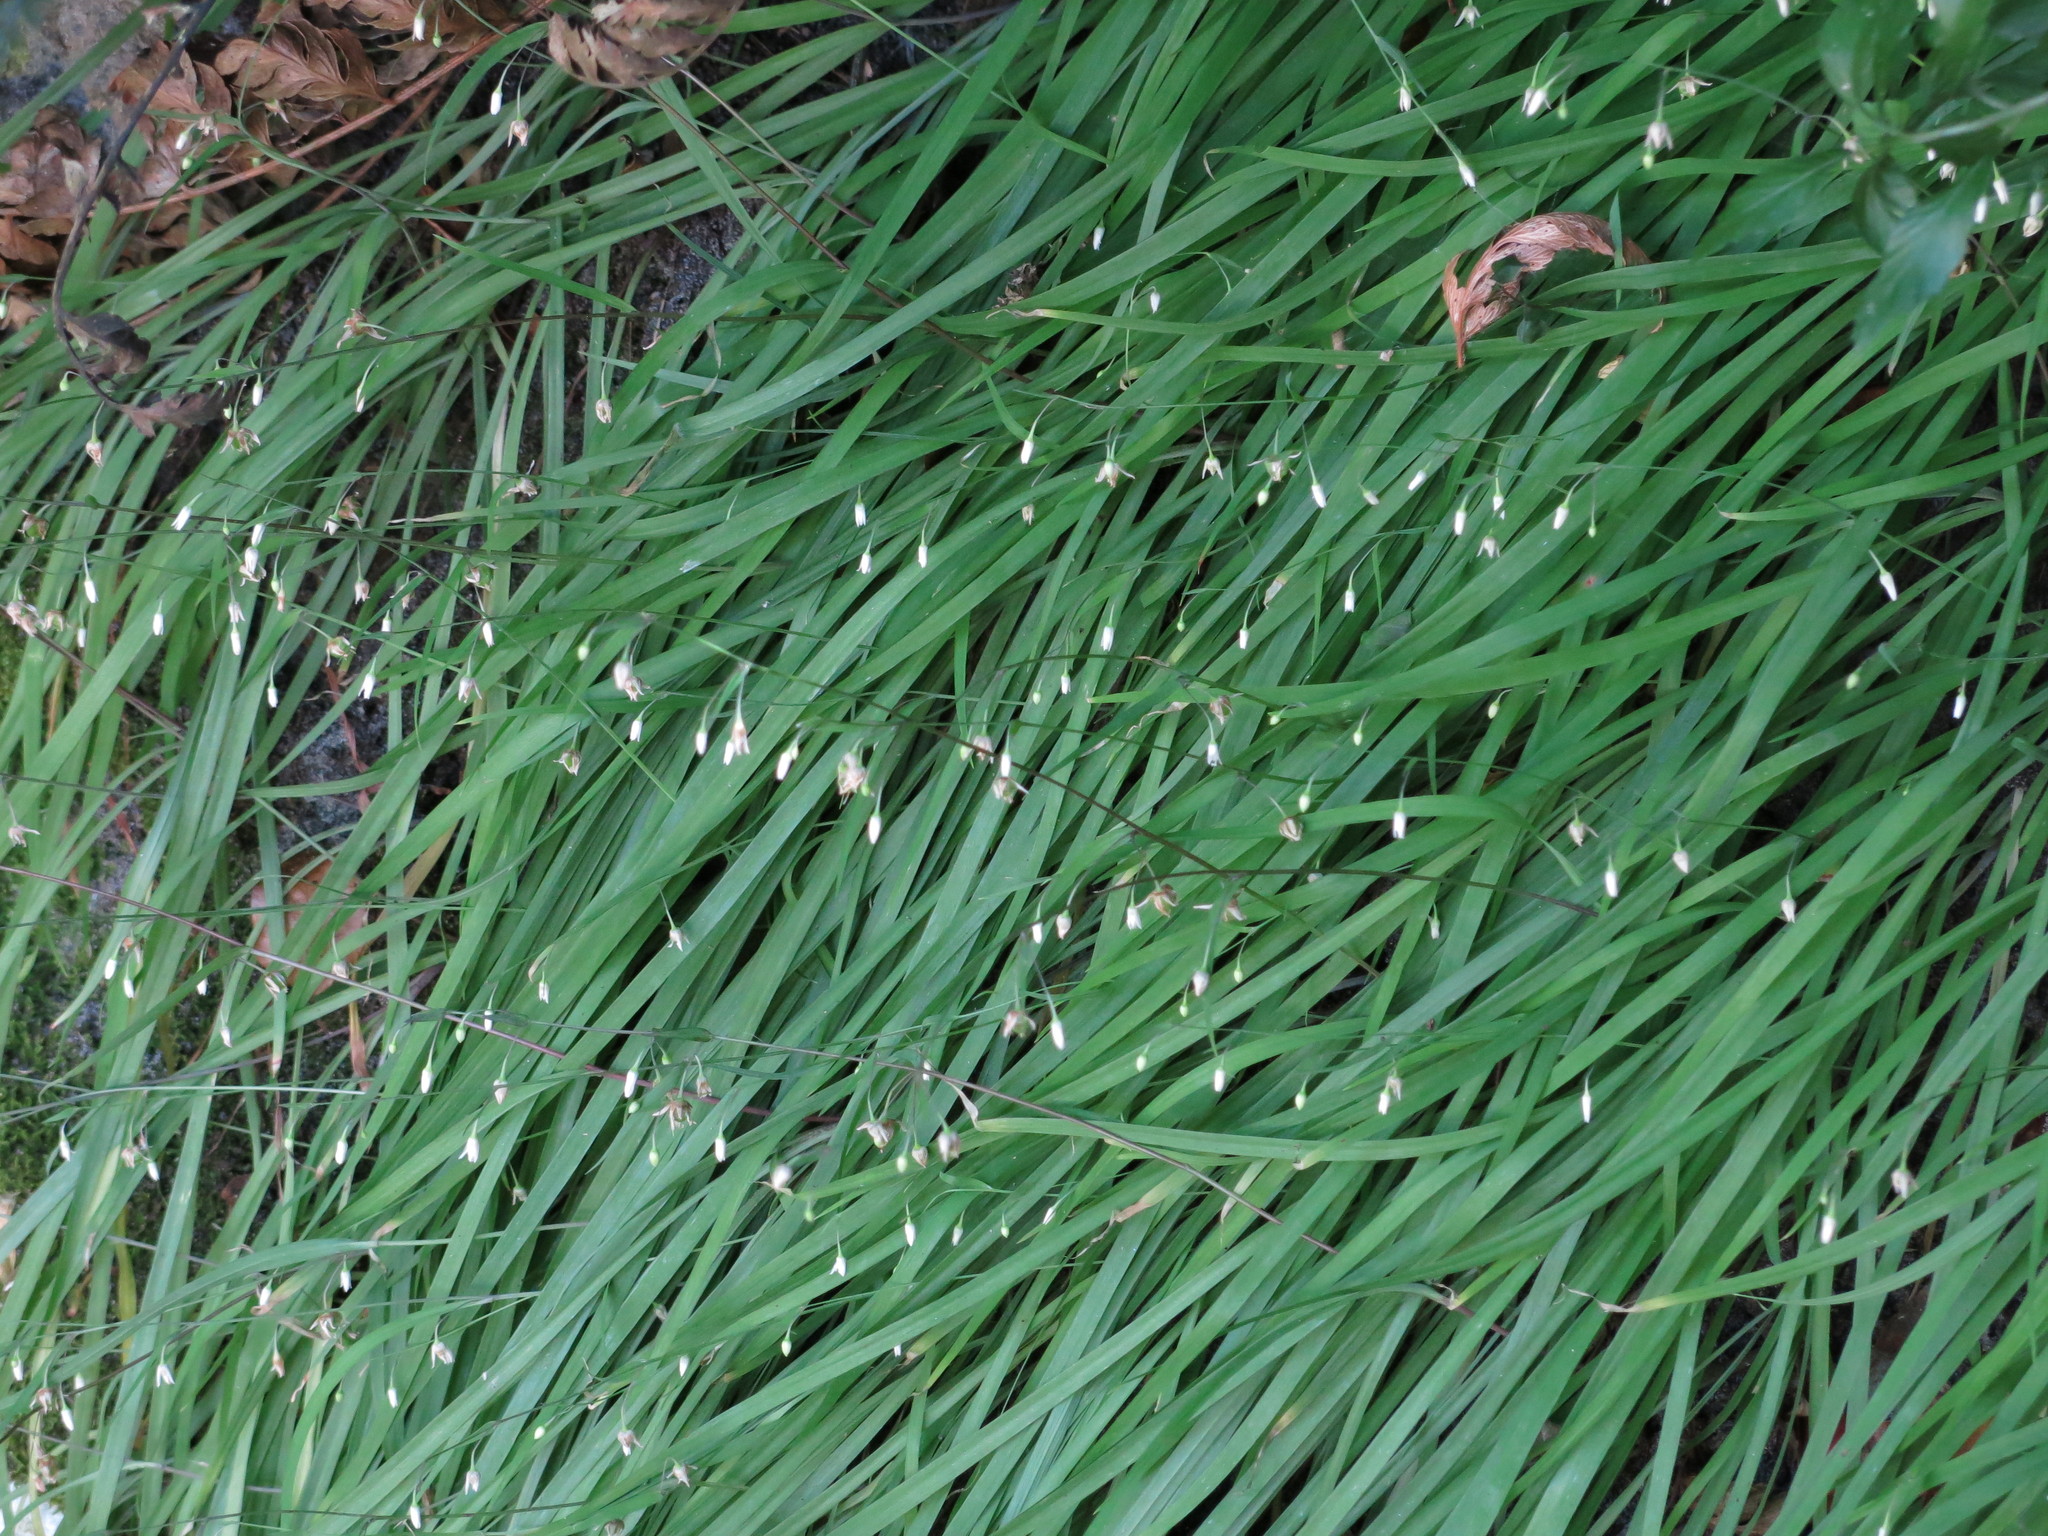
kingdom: Plantae
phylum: Tracheophyta
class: Liliopsida
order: Asparagales
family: Asparagaceae
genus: Arthropodium
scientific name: Arthropodium candidum
